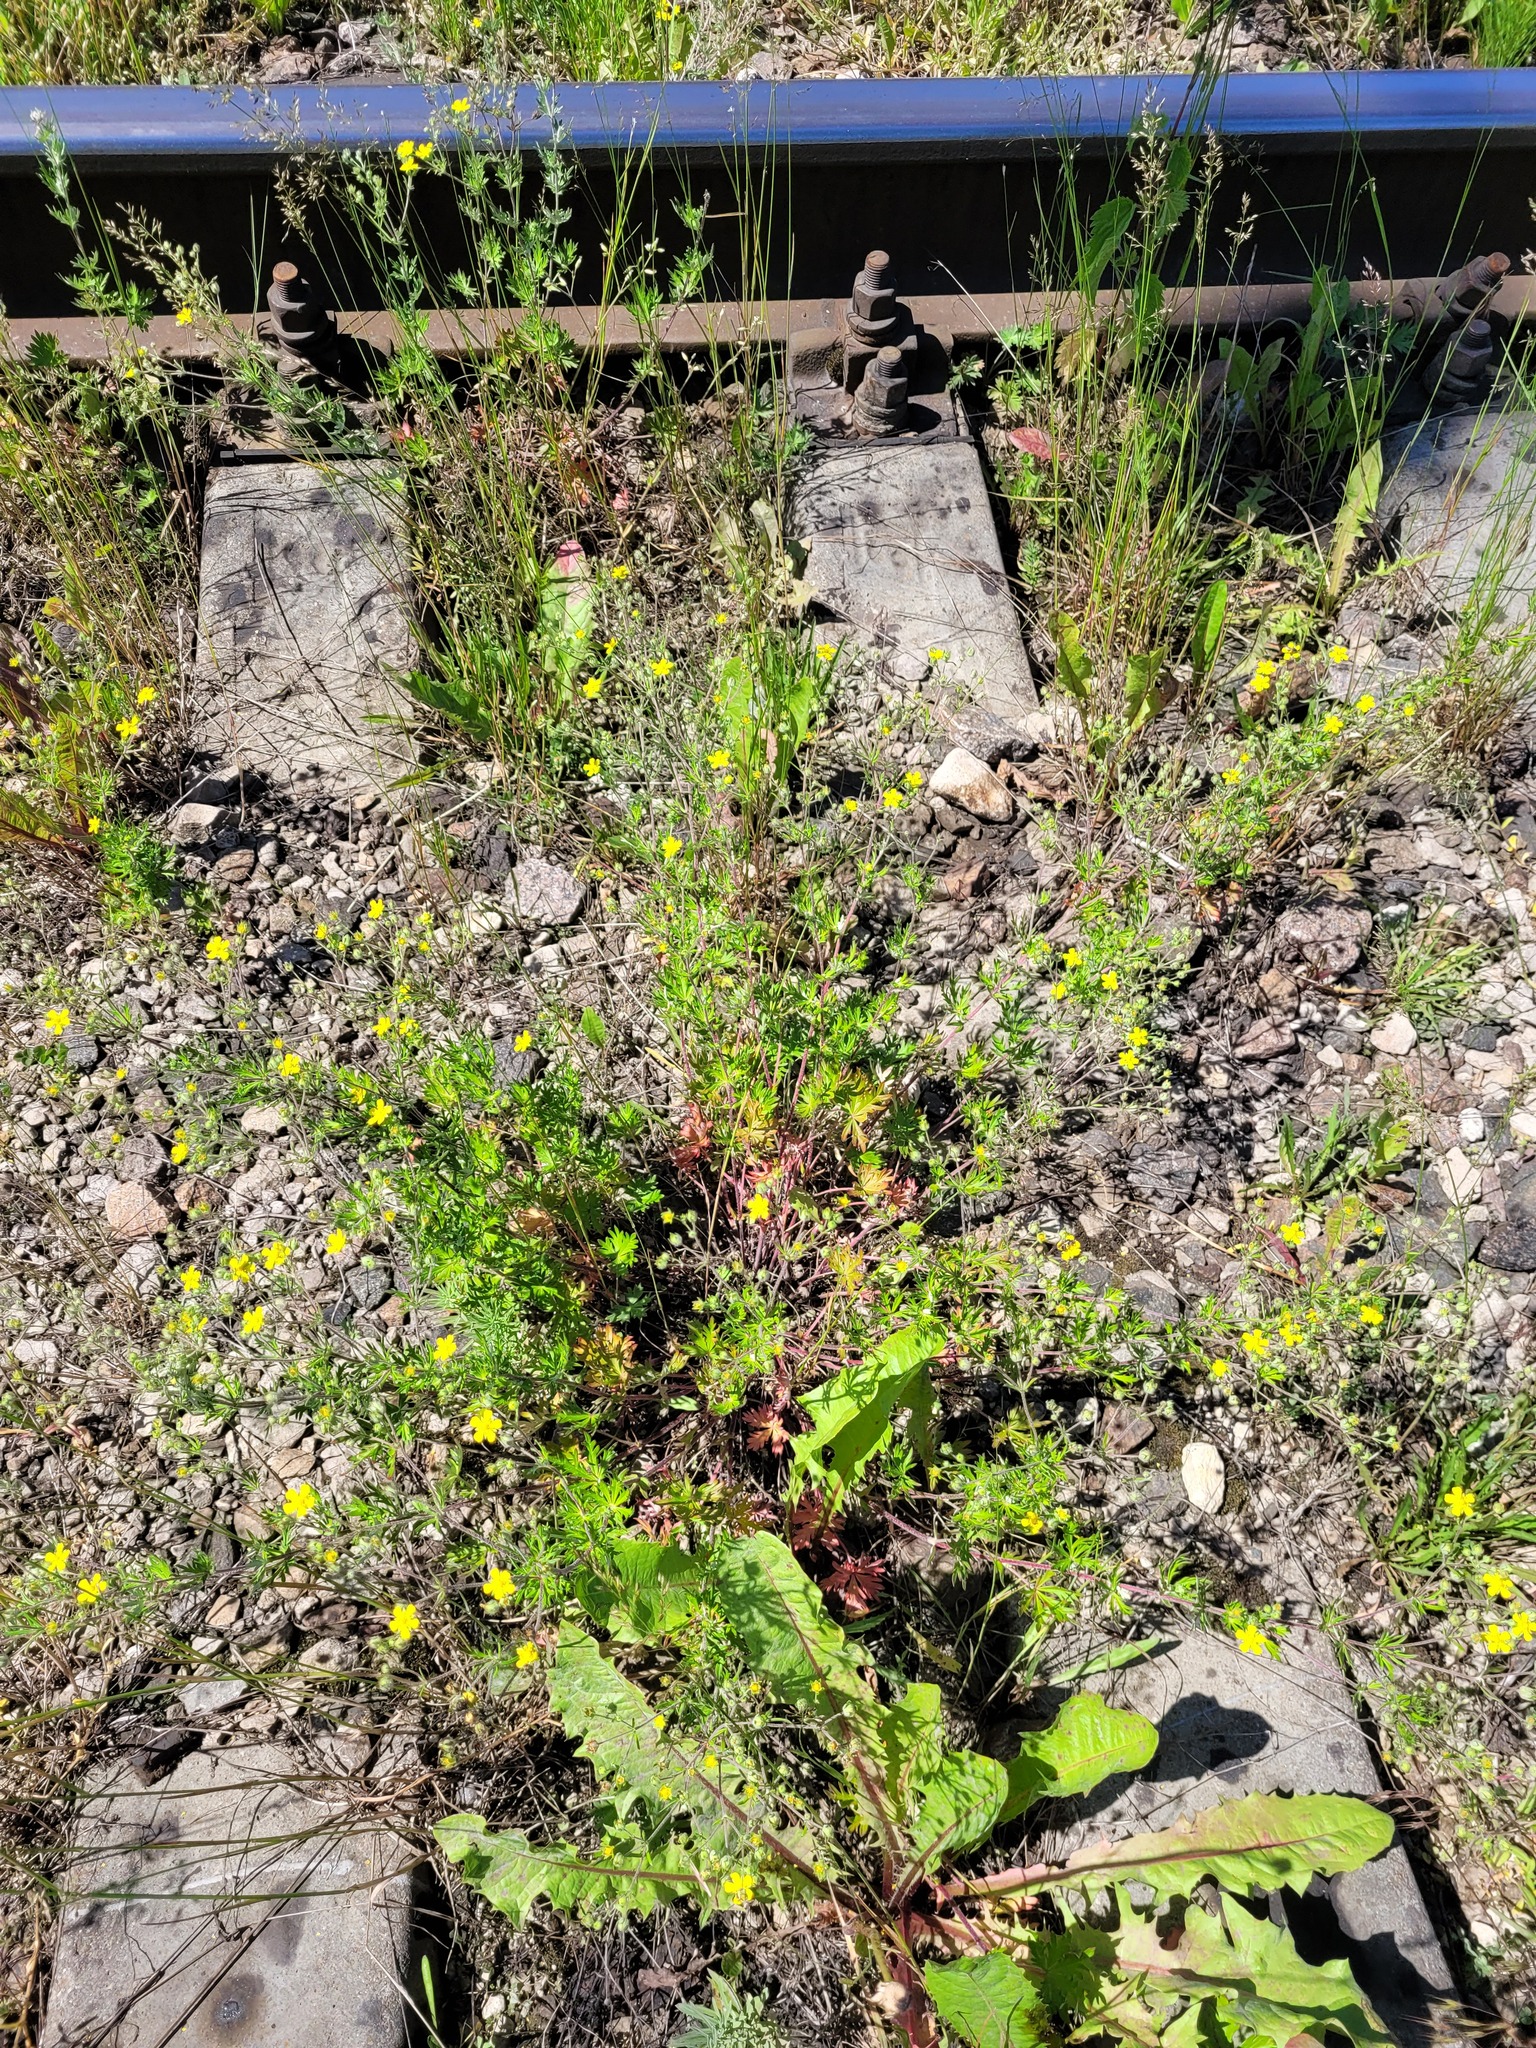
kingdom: Plantae
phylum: Tracheophyta
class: Magnoliopsida
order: Rosales
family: Rosaceae
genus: Potentilla
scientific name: Potentilla argentea
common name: Hoary cinquefoil
